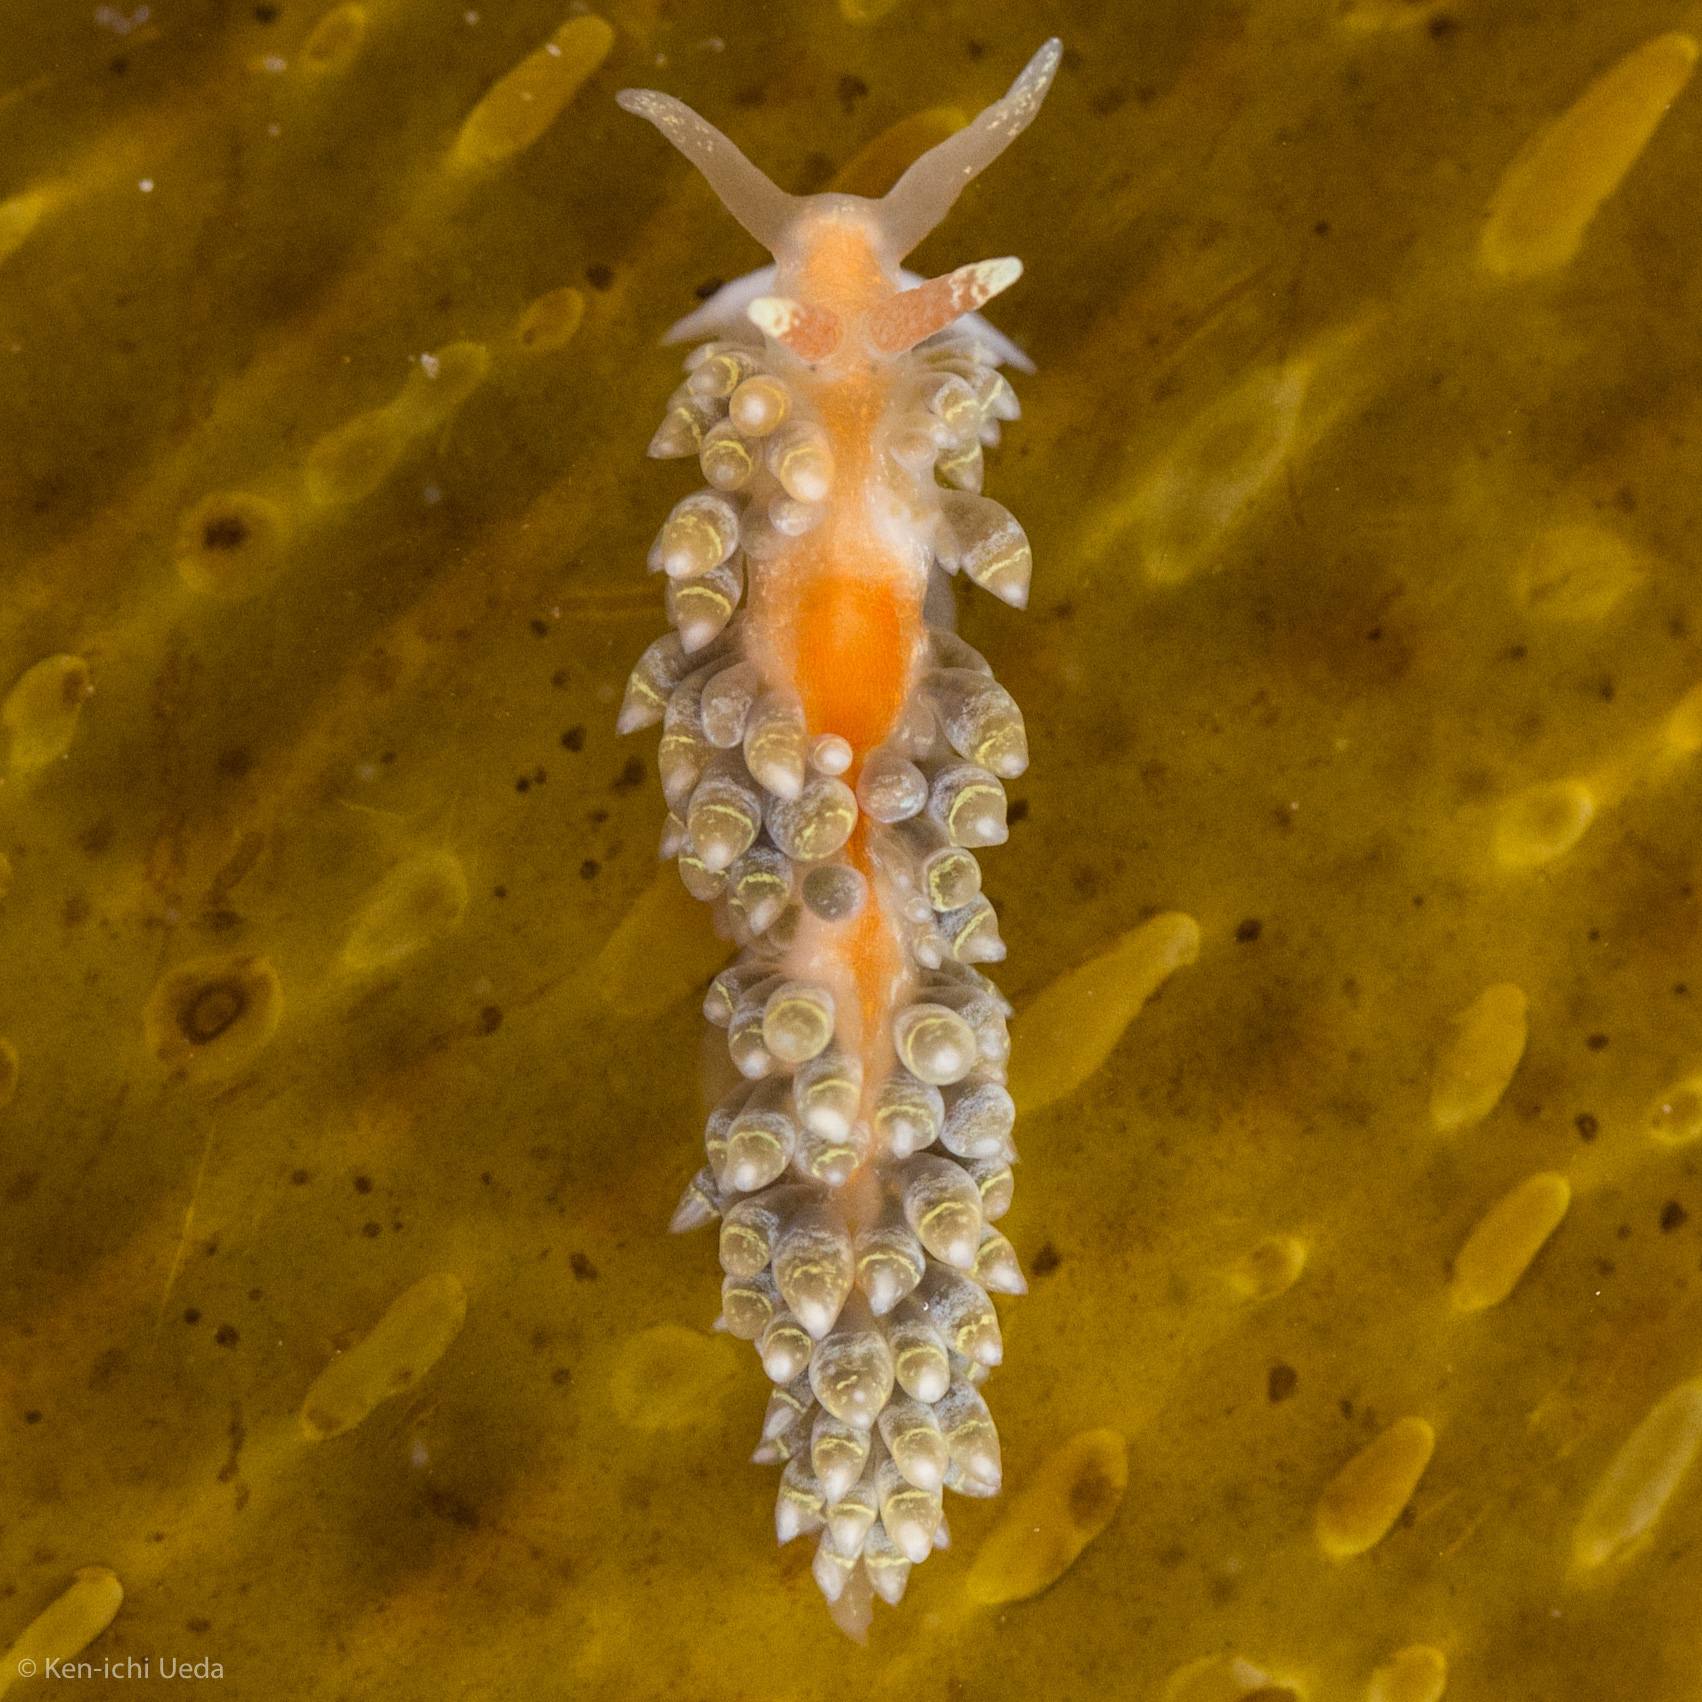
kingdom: Animalia
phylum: Mollusca
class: Gastropoda
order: Nudibranchia
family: Aeolidiidae
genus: Baeolidia
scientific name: Baeolidia macleayi
